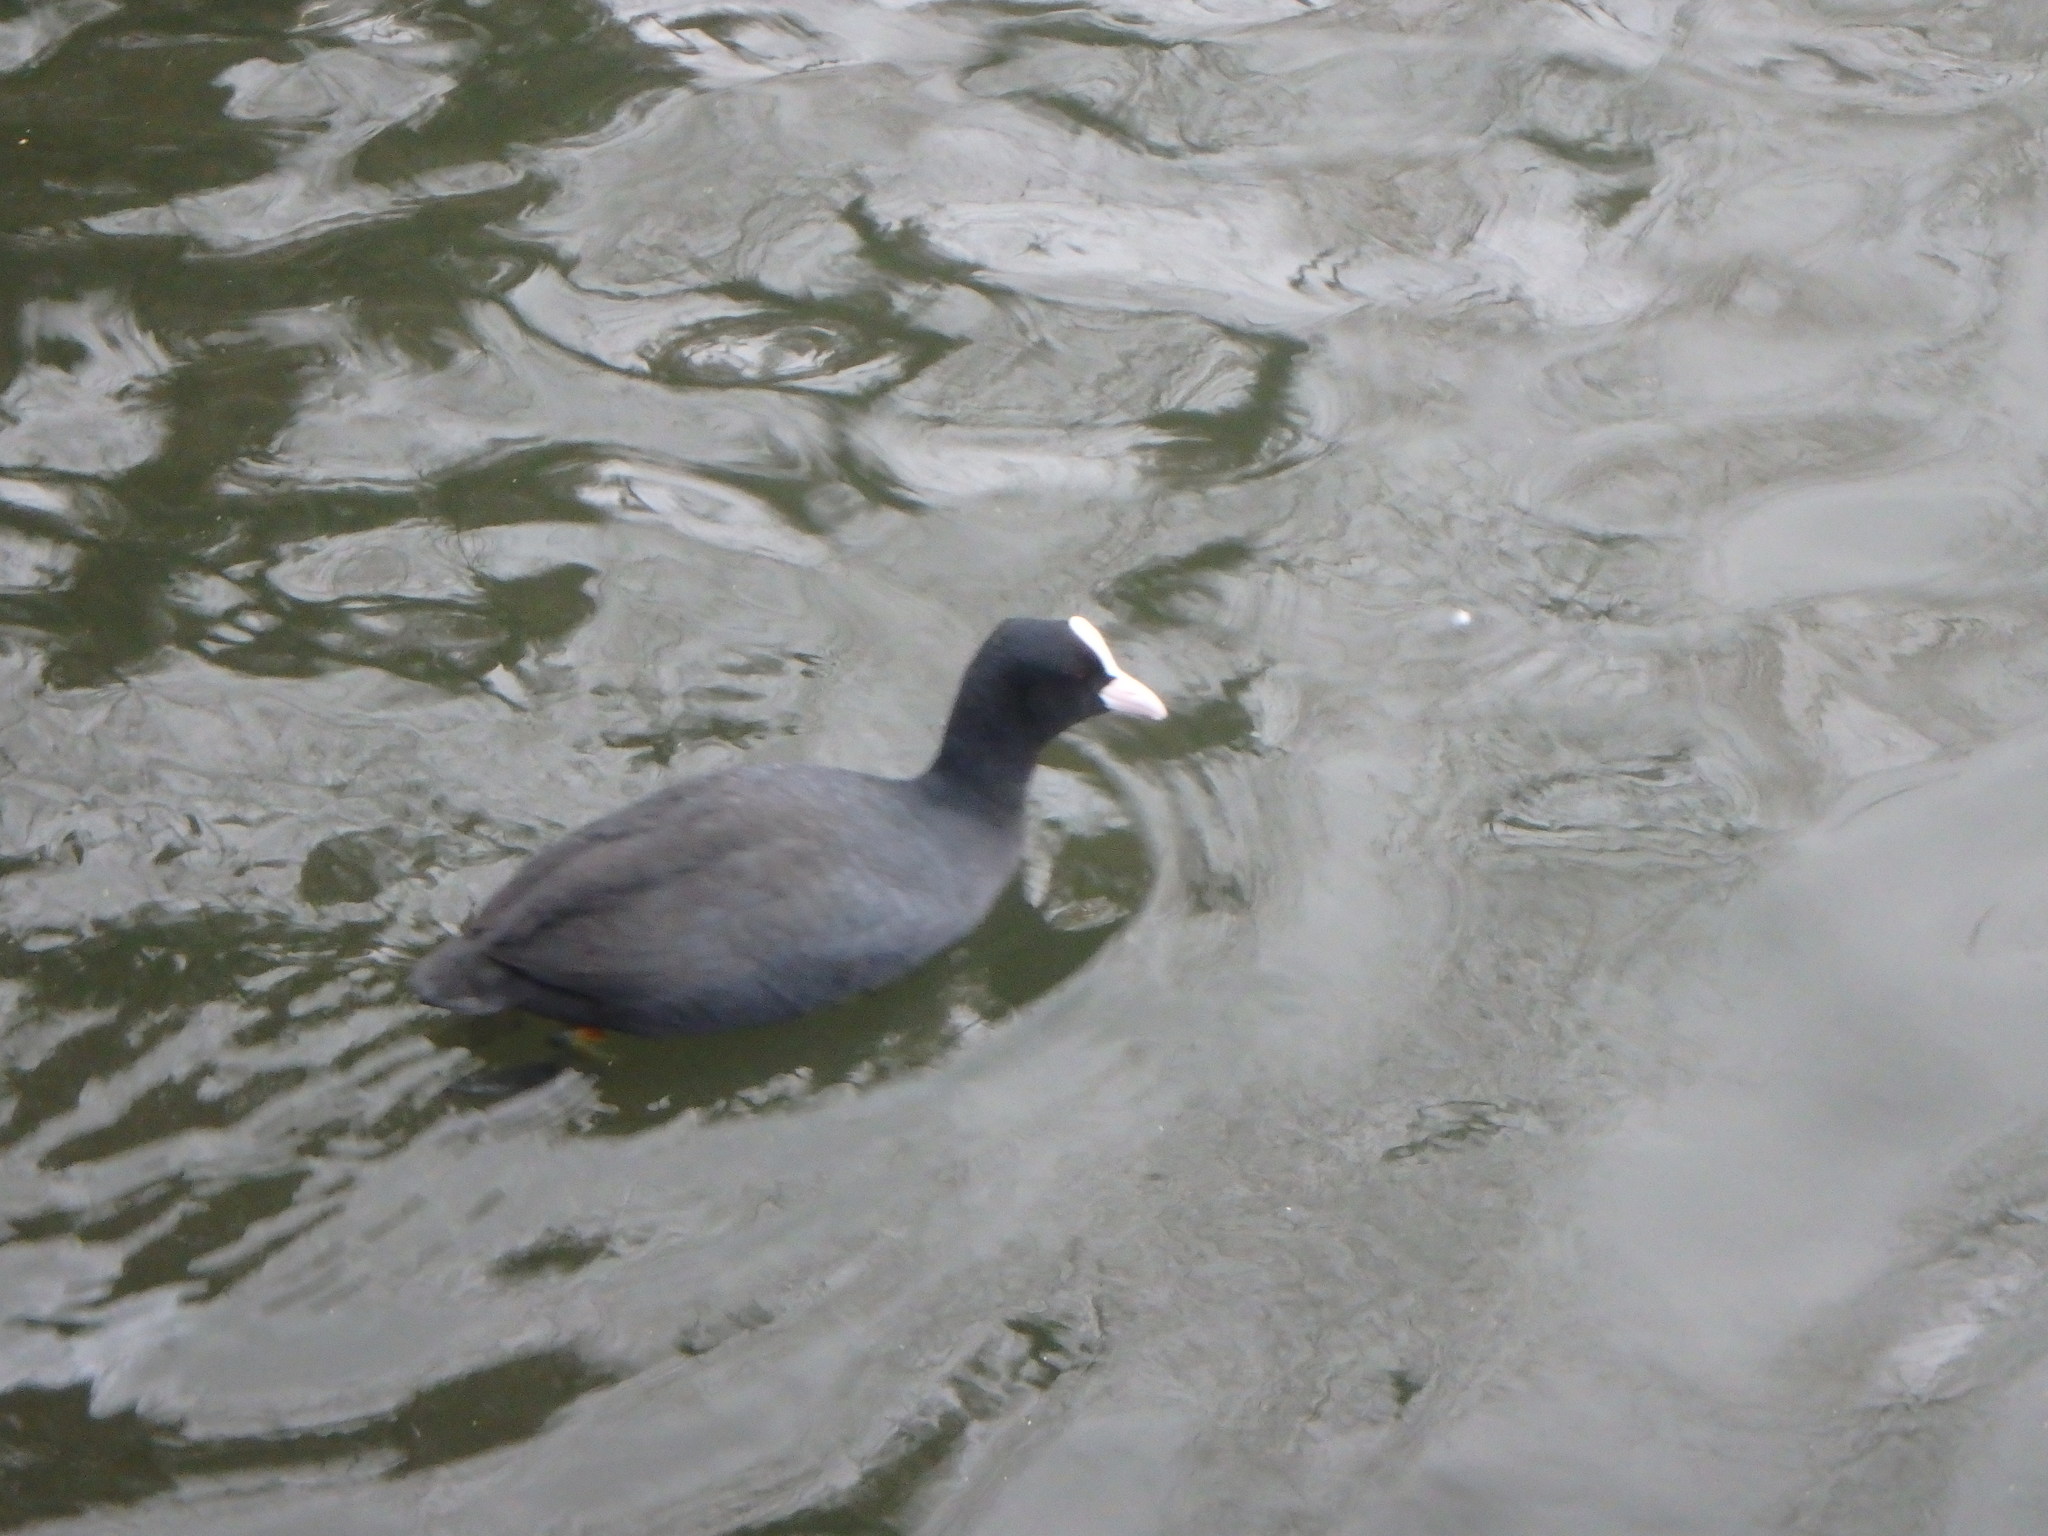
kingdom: Animalia
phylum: Chordata
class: Aves
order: Gruiformes
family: Rallidae
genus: Fulica
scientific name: Fulica atra
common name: Eurasian coot
